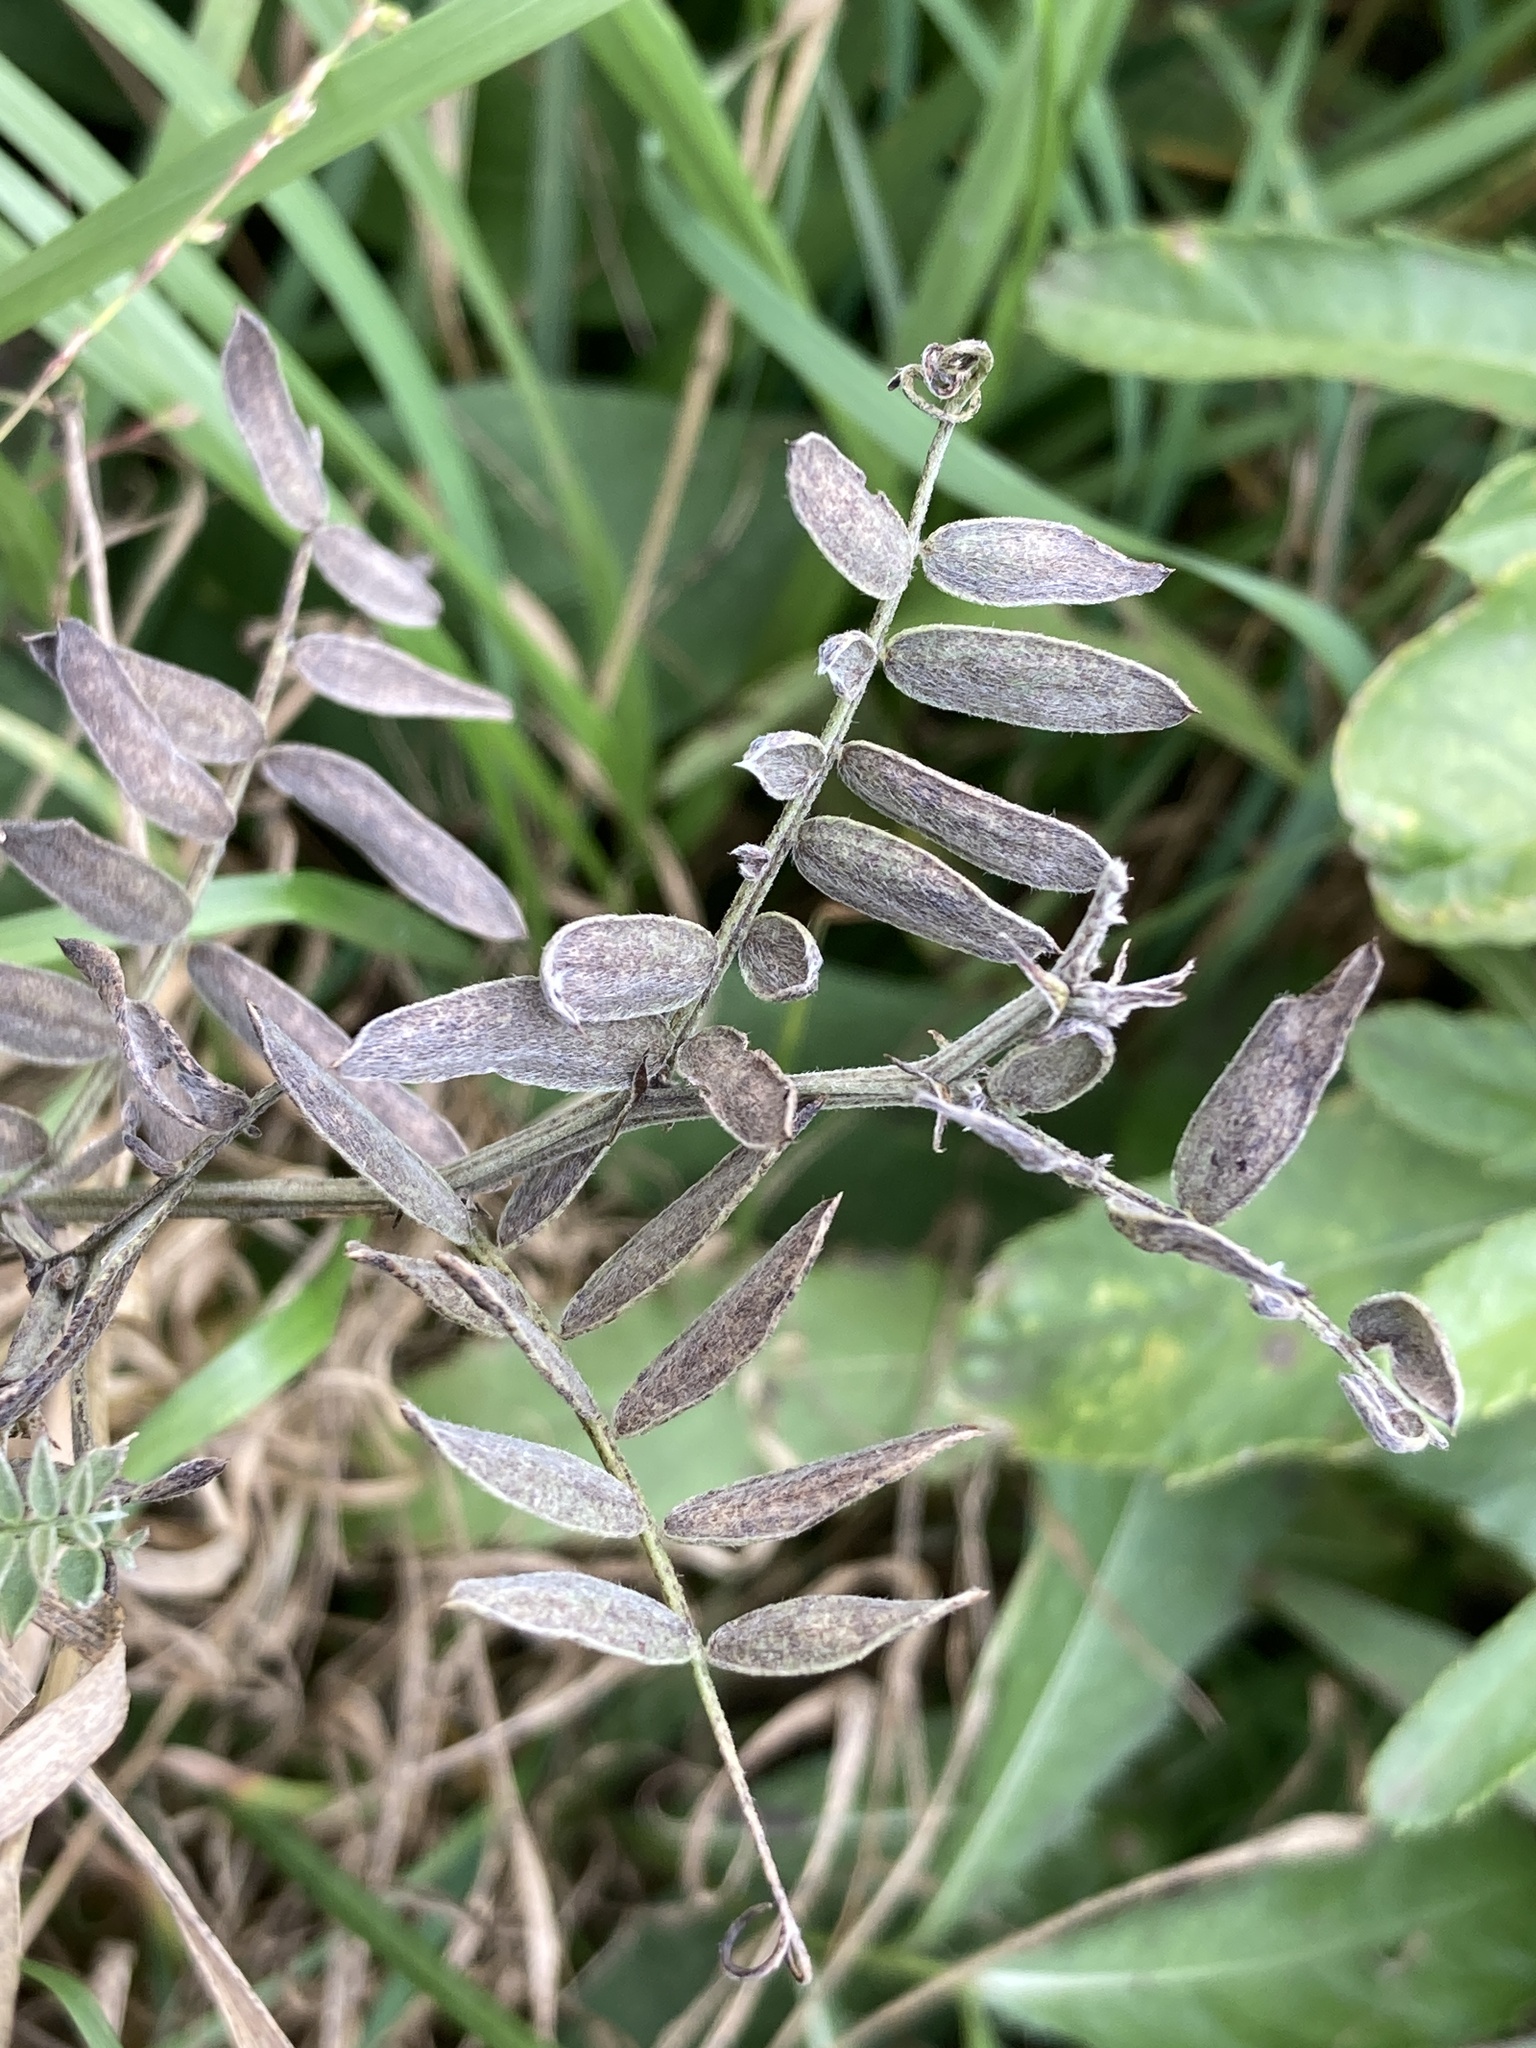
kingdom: Plantae
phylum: Tracheophyta
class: Magnoliopsida
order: Fabales
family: Fabaceae
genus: Vicia
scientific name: Vicia cracca
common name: Bird vetch
